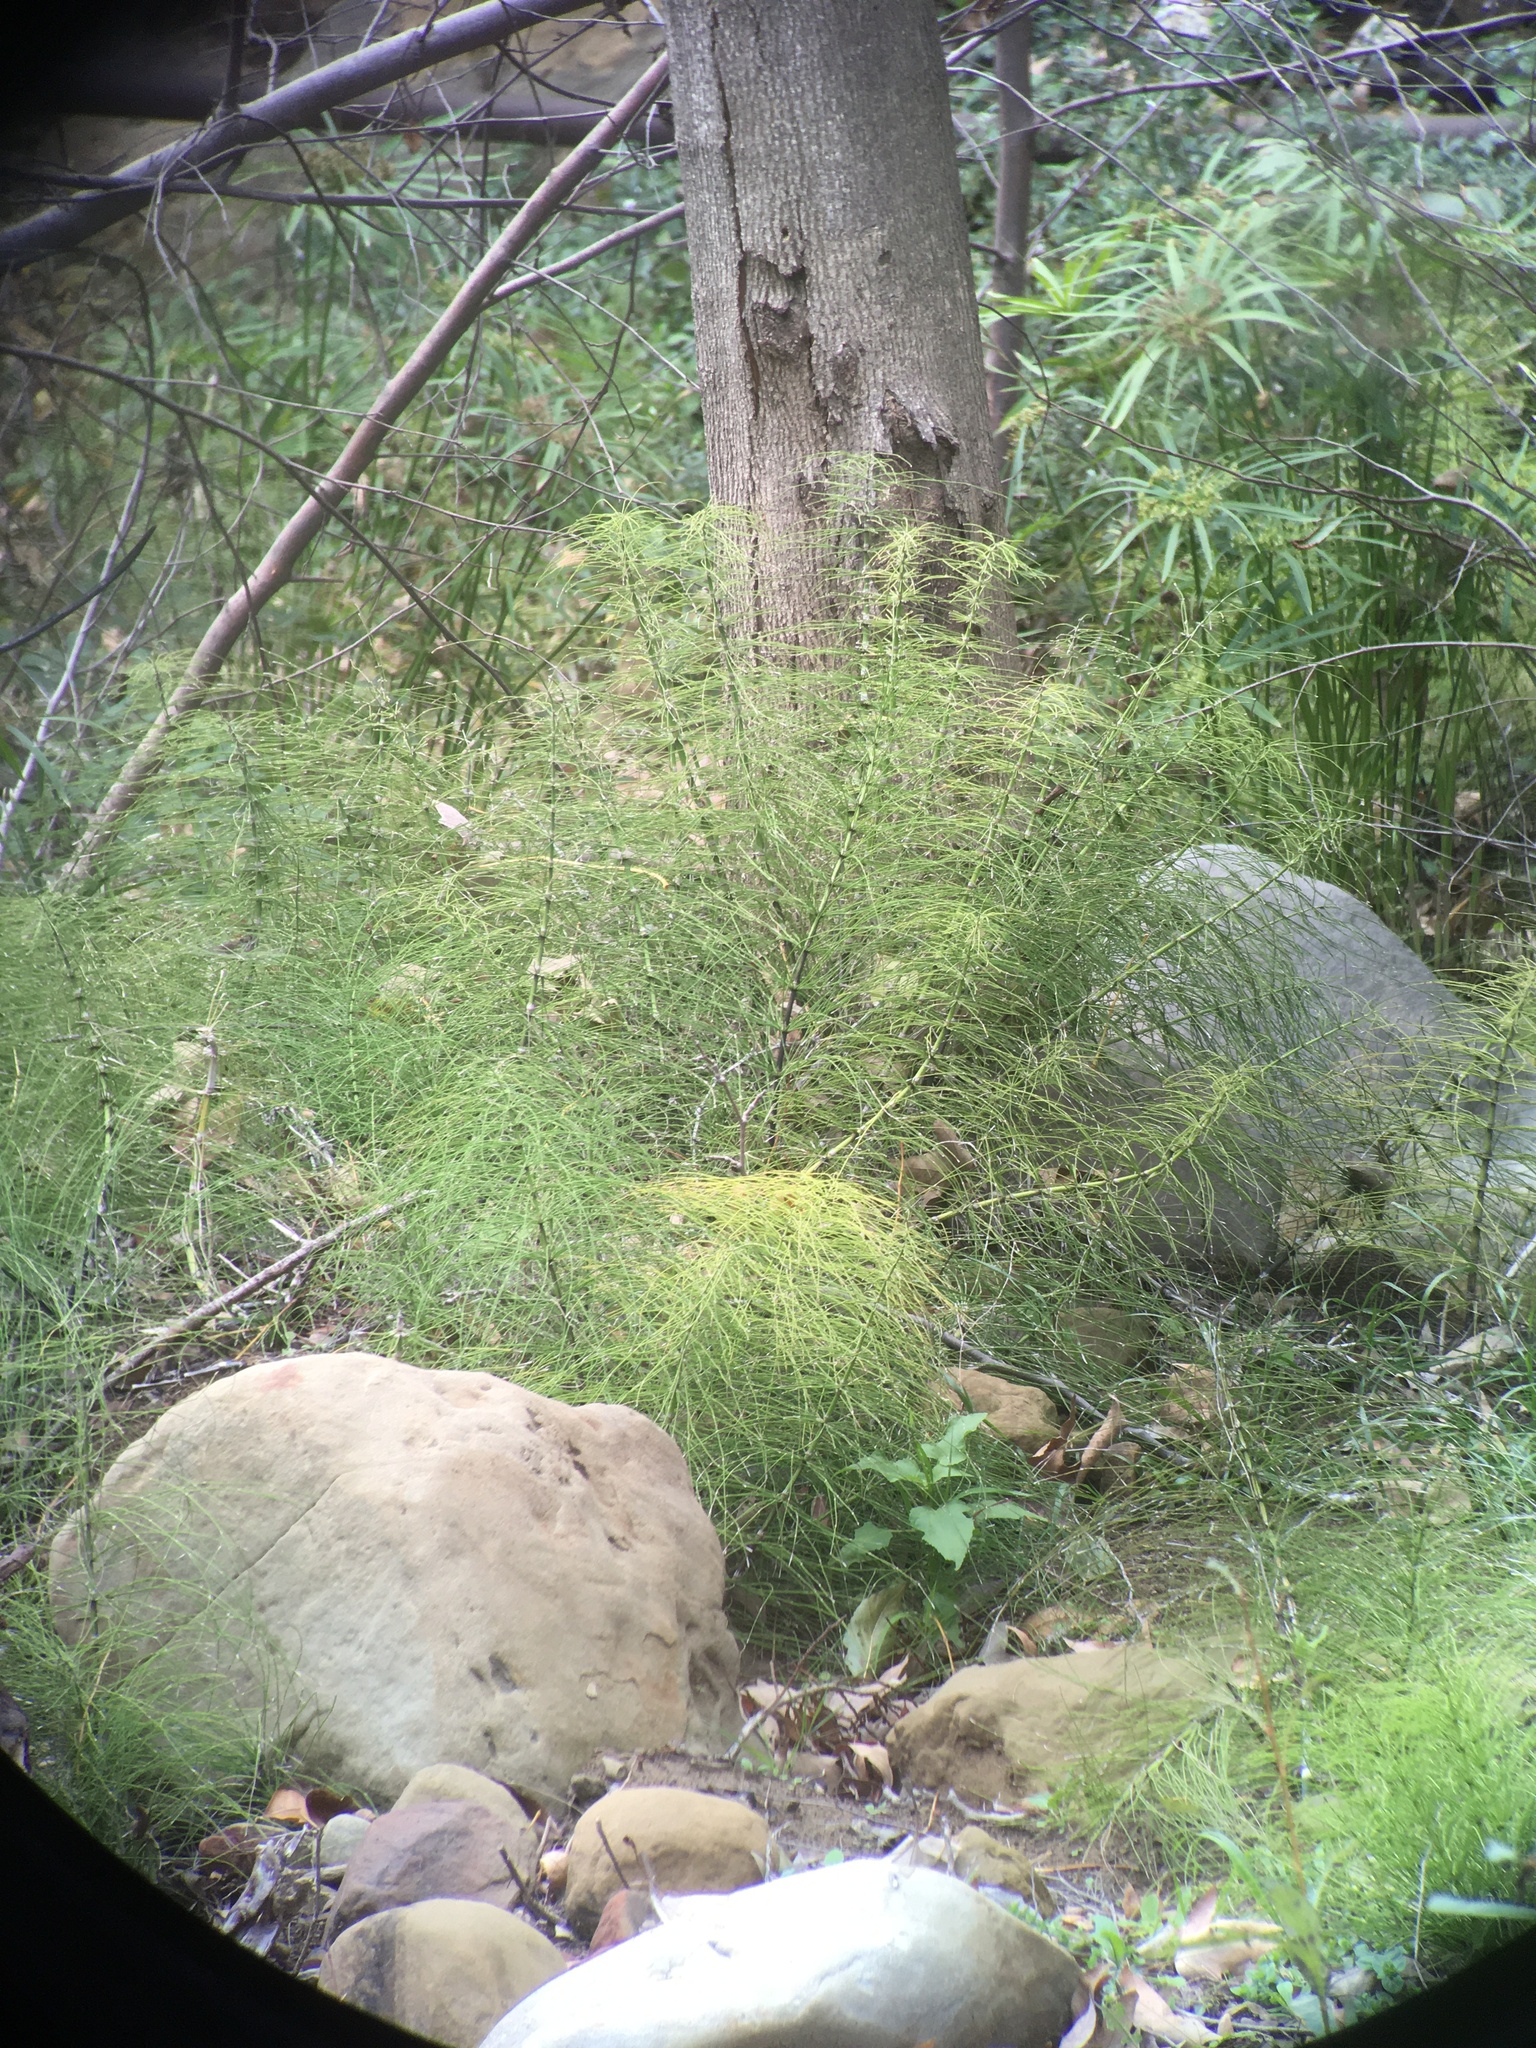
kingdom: Plantae
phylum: Tracheophyta
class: Polypodiopsida
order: Equisetales
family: Equisetaceae
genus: Equisetum
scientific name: Equisetum telmateia
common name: Great horsetail
